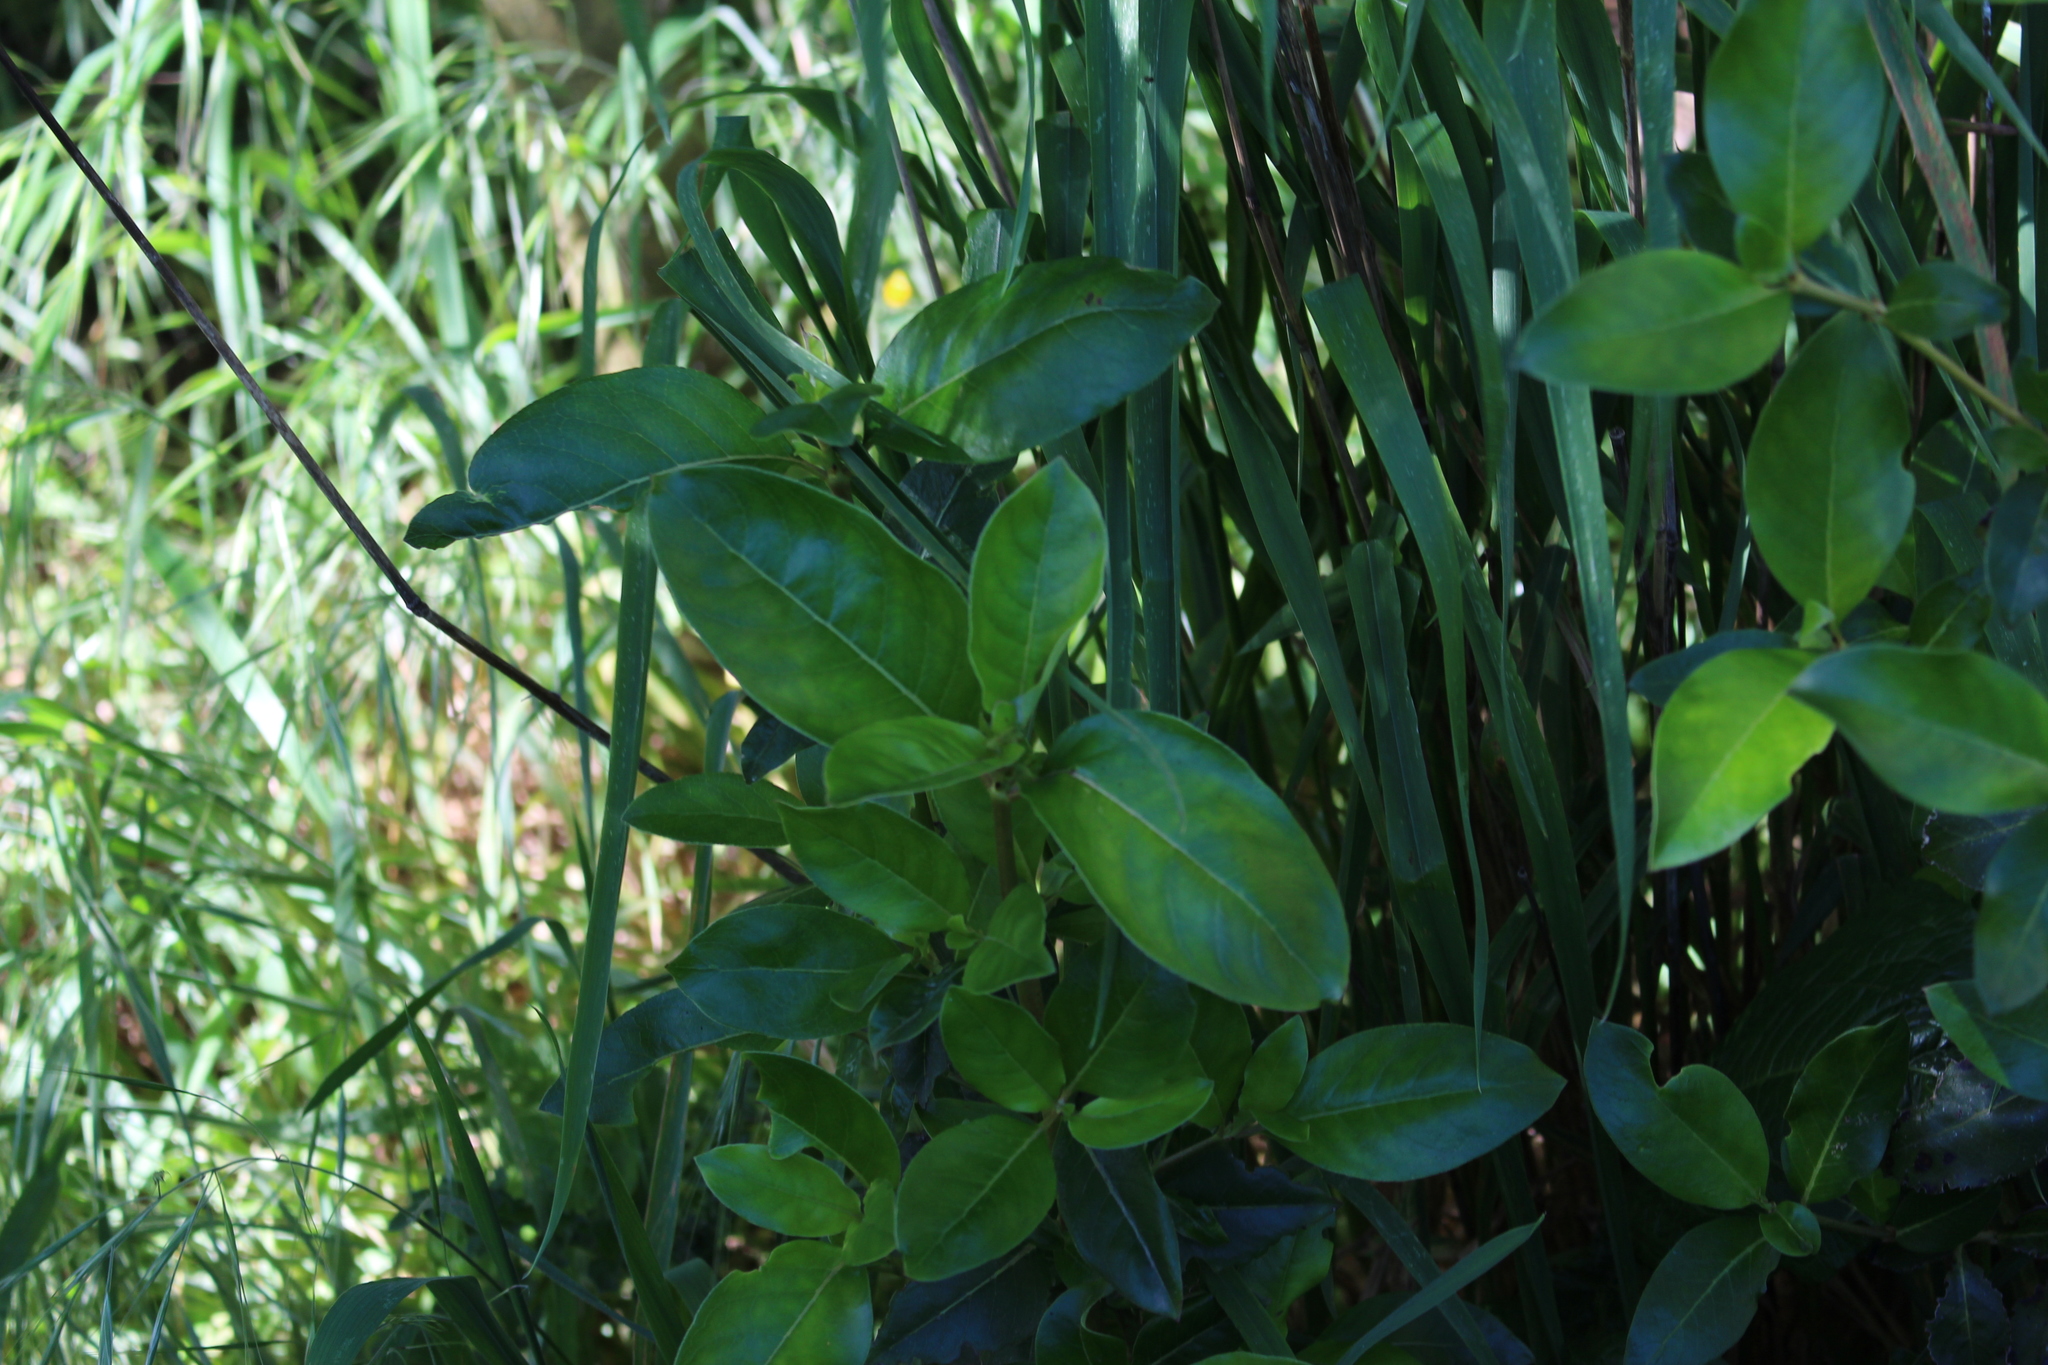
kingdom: Plantae
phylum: Tracheophyta
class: Magnoliopsida
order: Gentianales
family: Rubiaceae
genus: Coprosma
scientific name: Coprosma robusta
